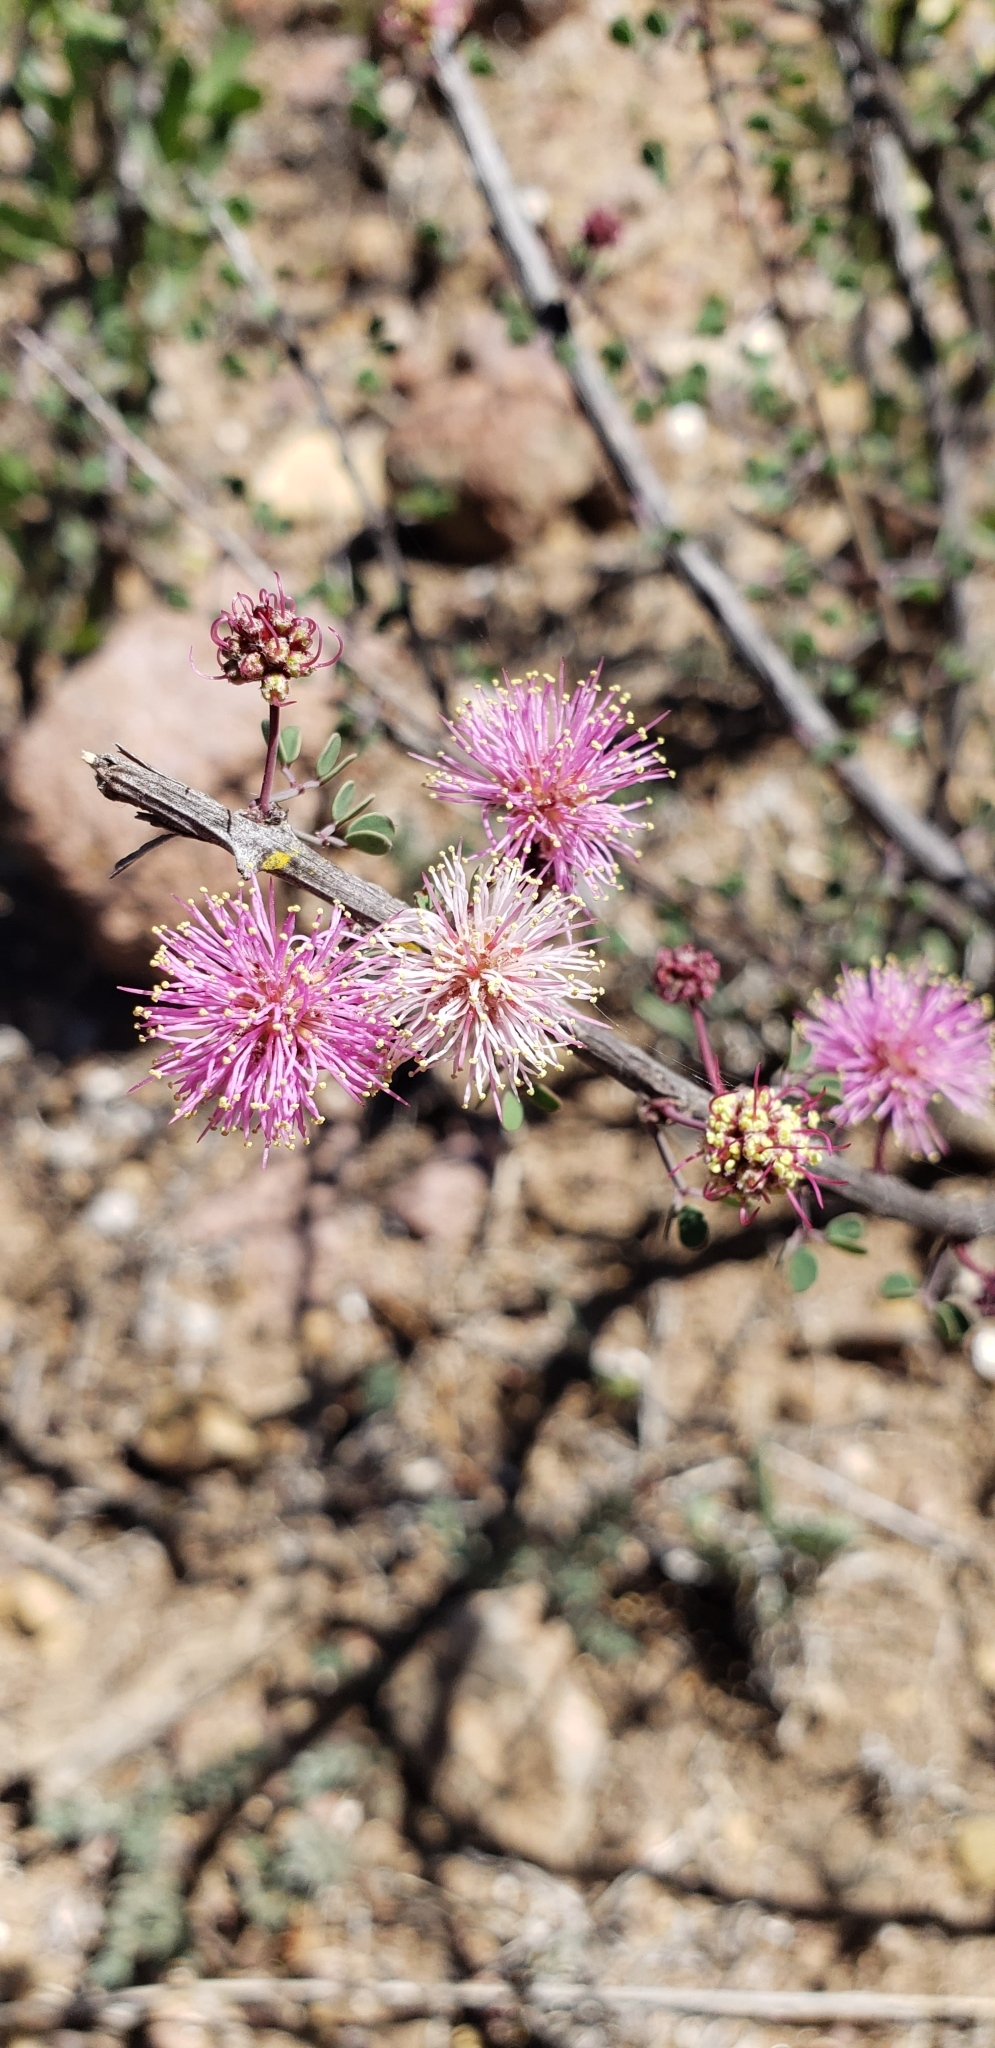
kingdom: Plantae
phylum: Tracheophyta
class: Magnoliopsida
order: Fabales
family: Fabaceae
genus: Mimosa
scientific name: Mimosa zygophylla
